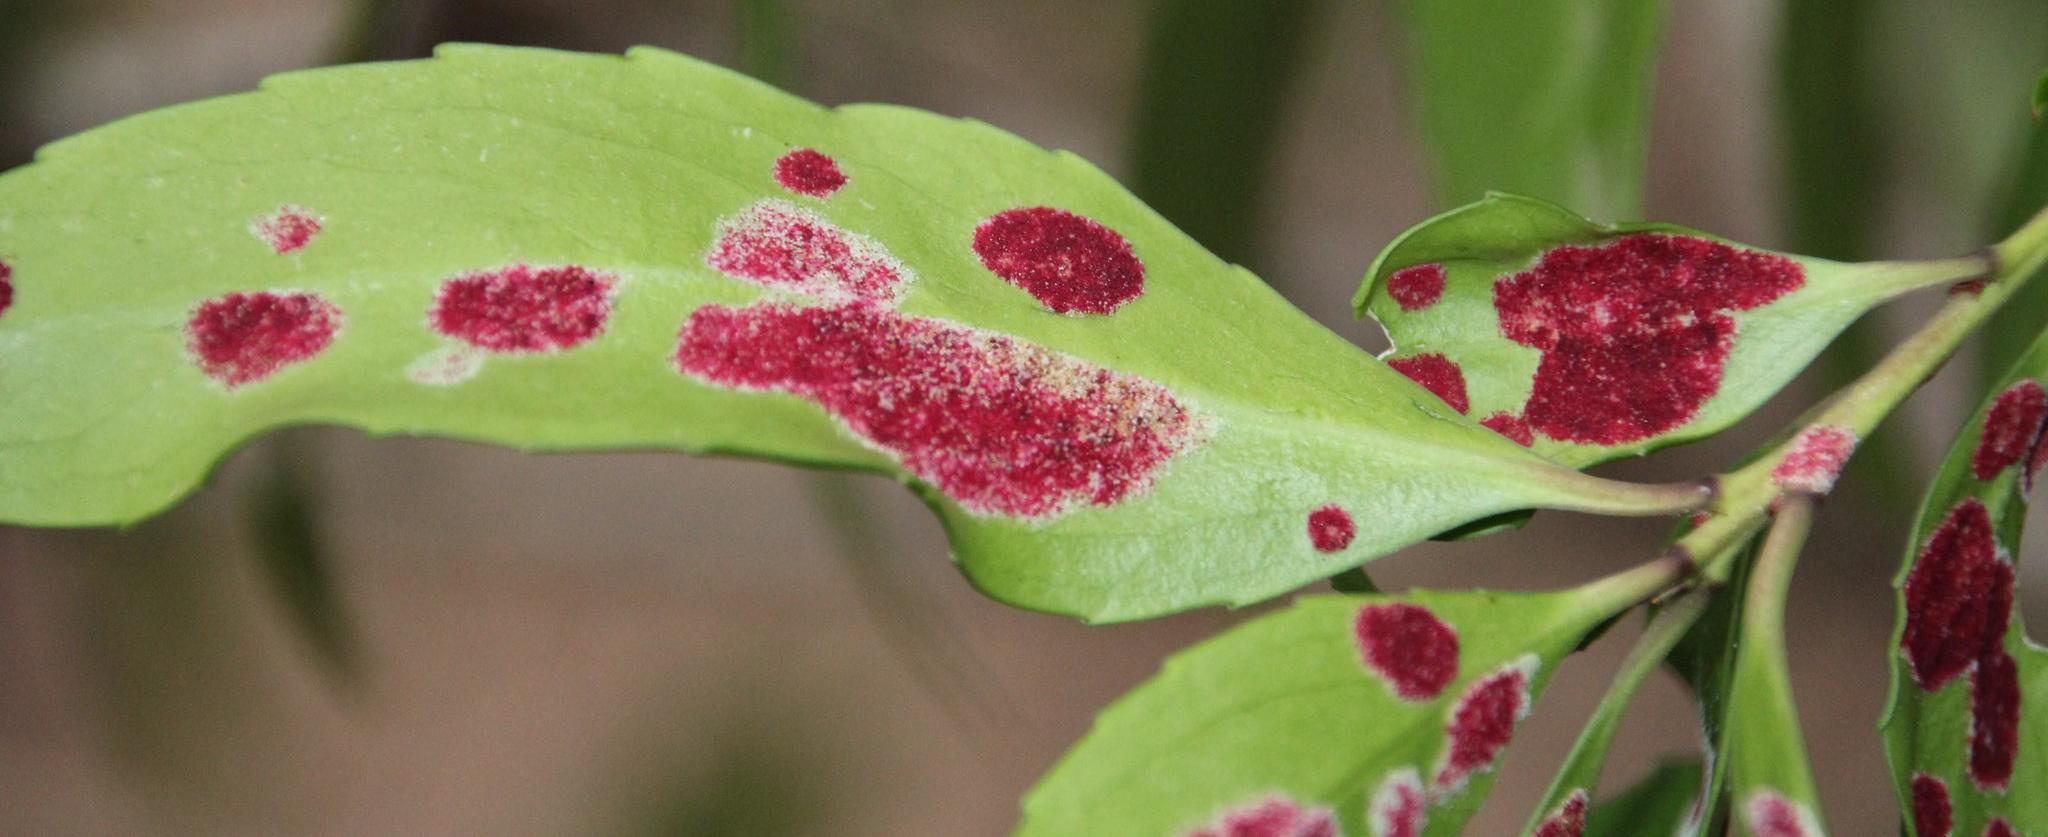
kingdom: Animalia
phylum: Arthropoda
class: Arachnida
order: Trombidiformes
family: Eriophyidae
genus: Eriophyes
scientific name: Eriophyes
